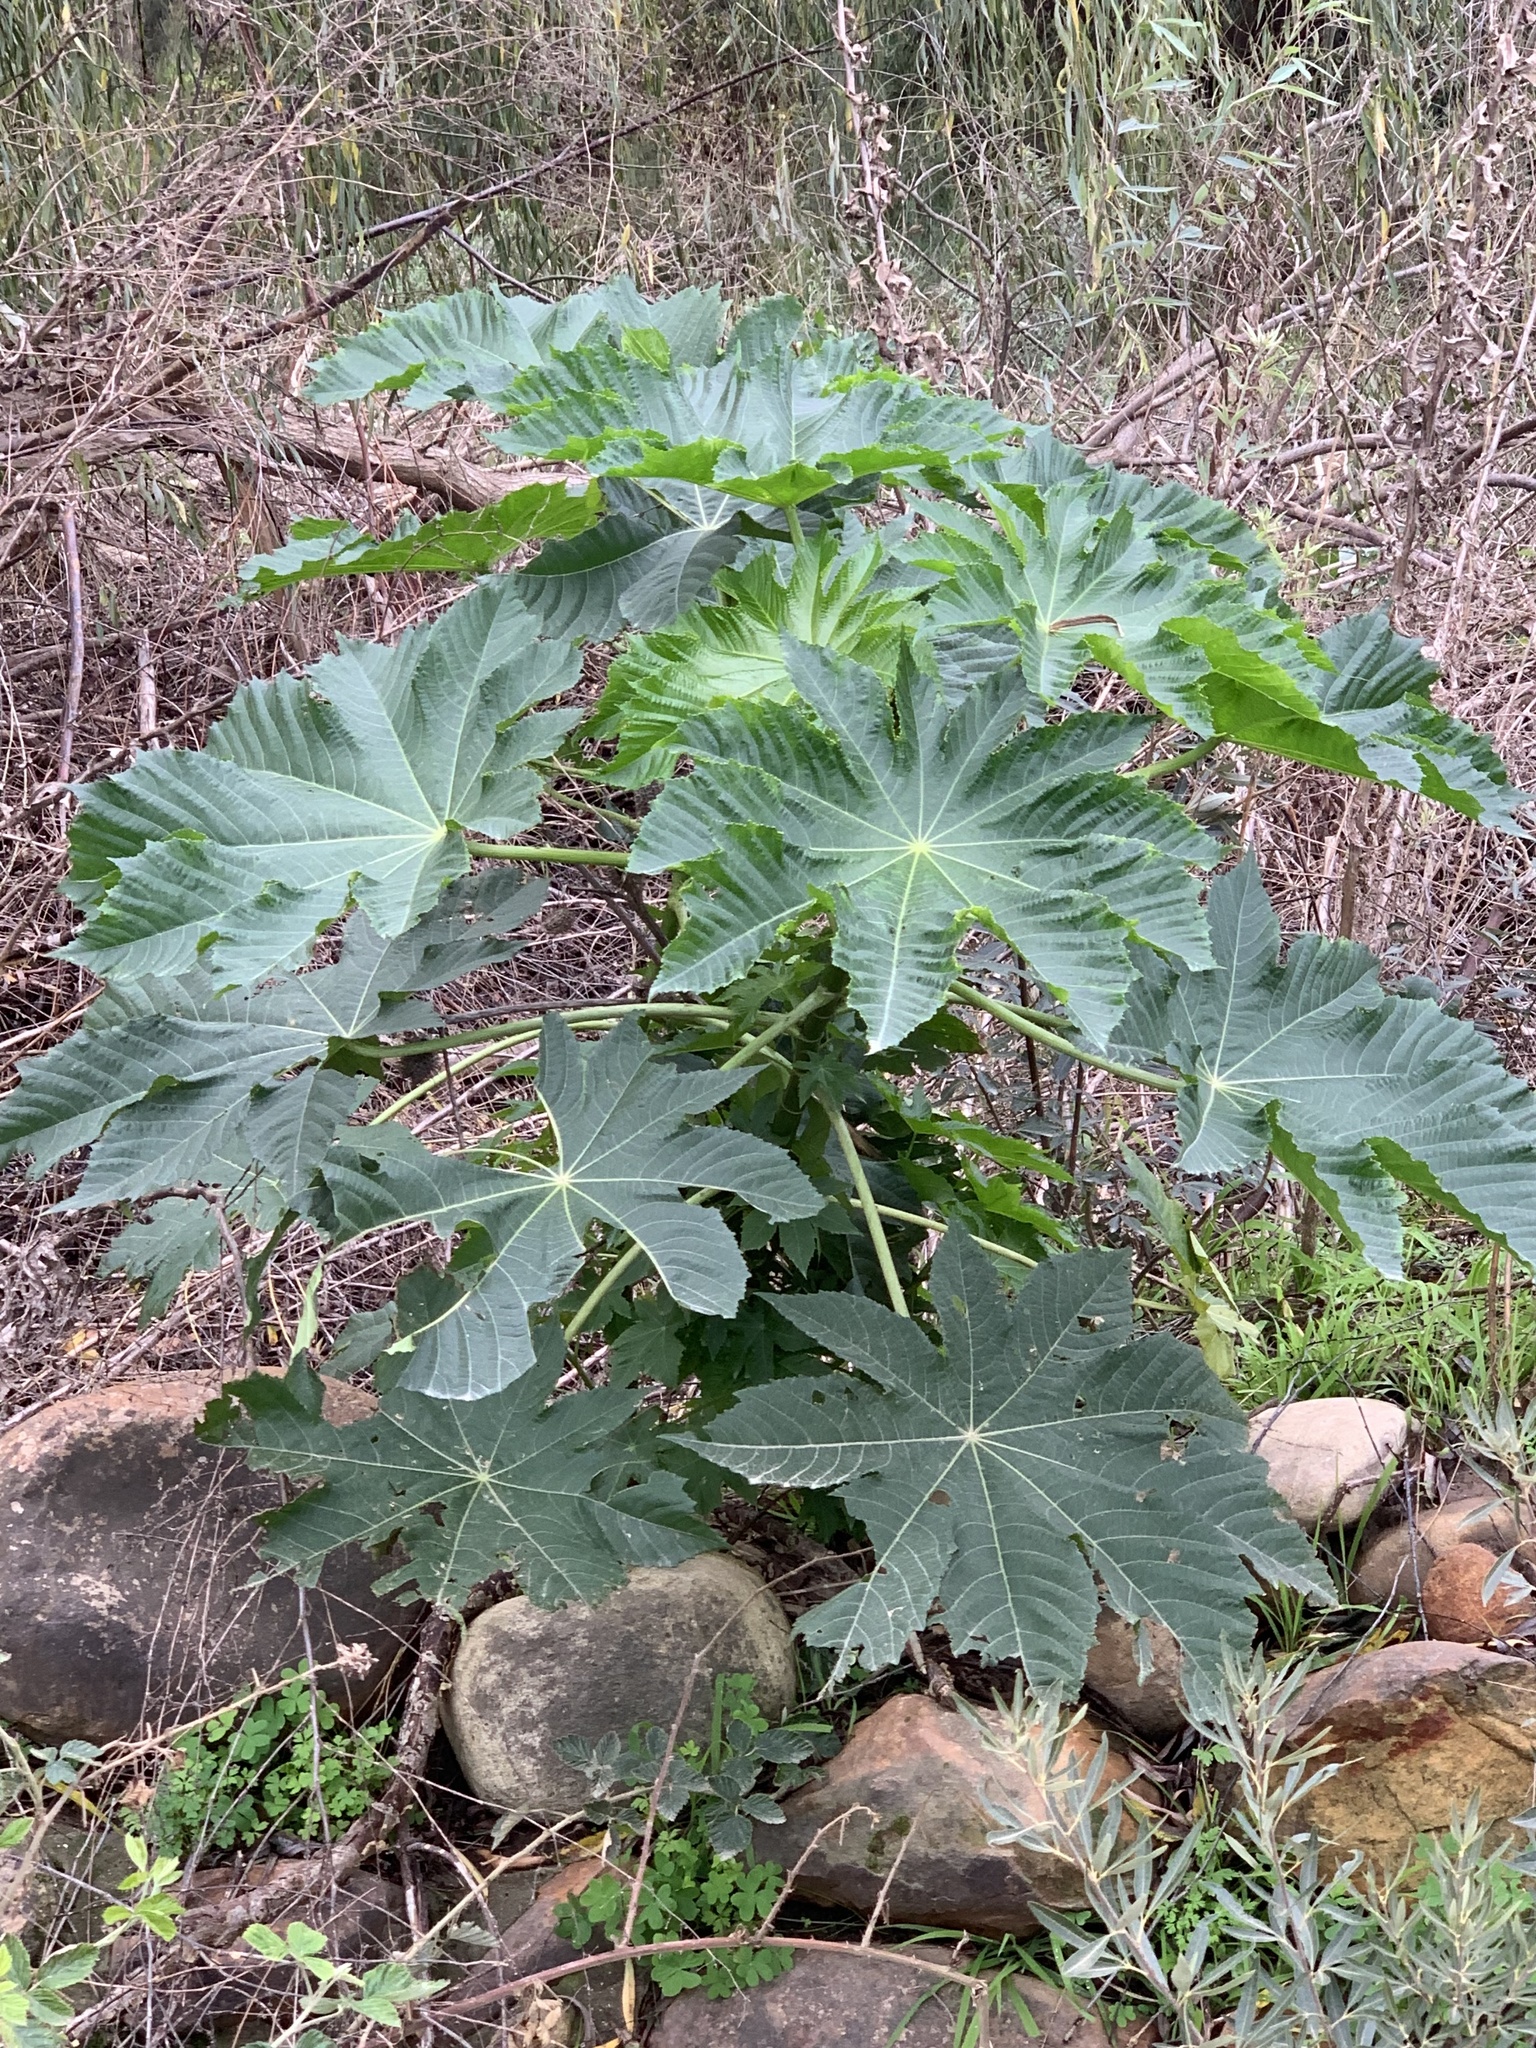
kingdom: Plantae
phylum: Tracheophyta
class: Magnoliopsida
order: Malpighiales
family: Euphorbiaceae
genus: Ricinus
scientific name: Ricinus communis
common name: Castor-oil-plant
